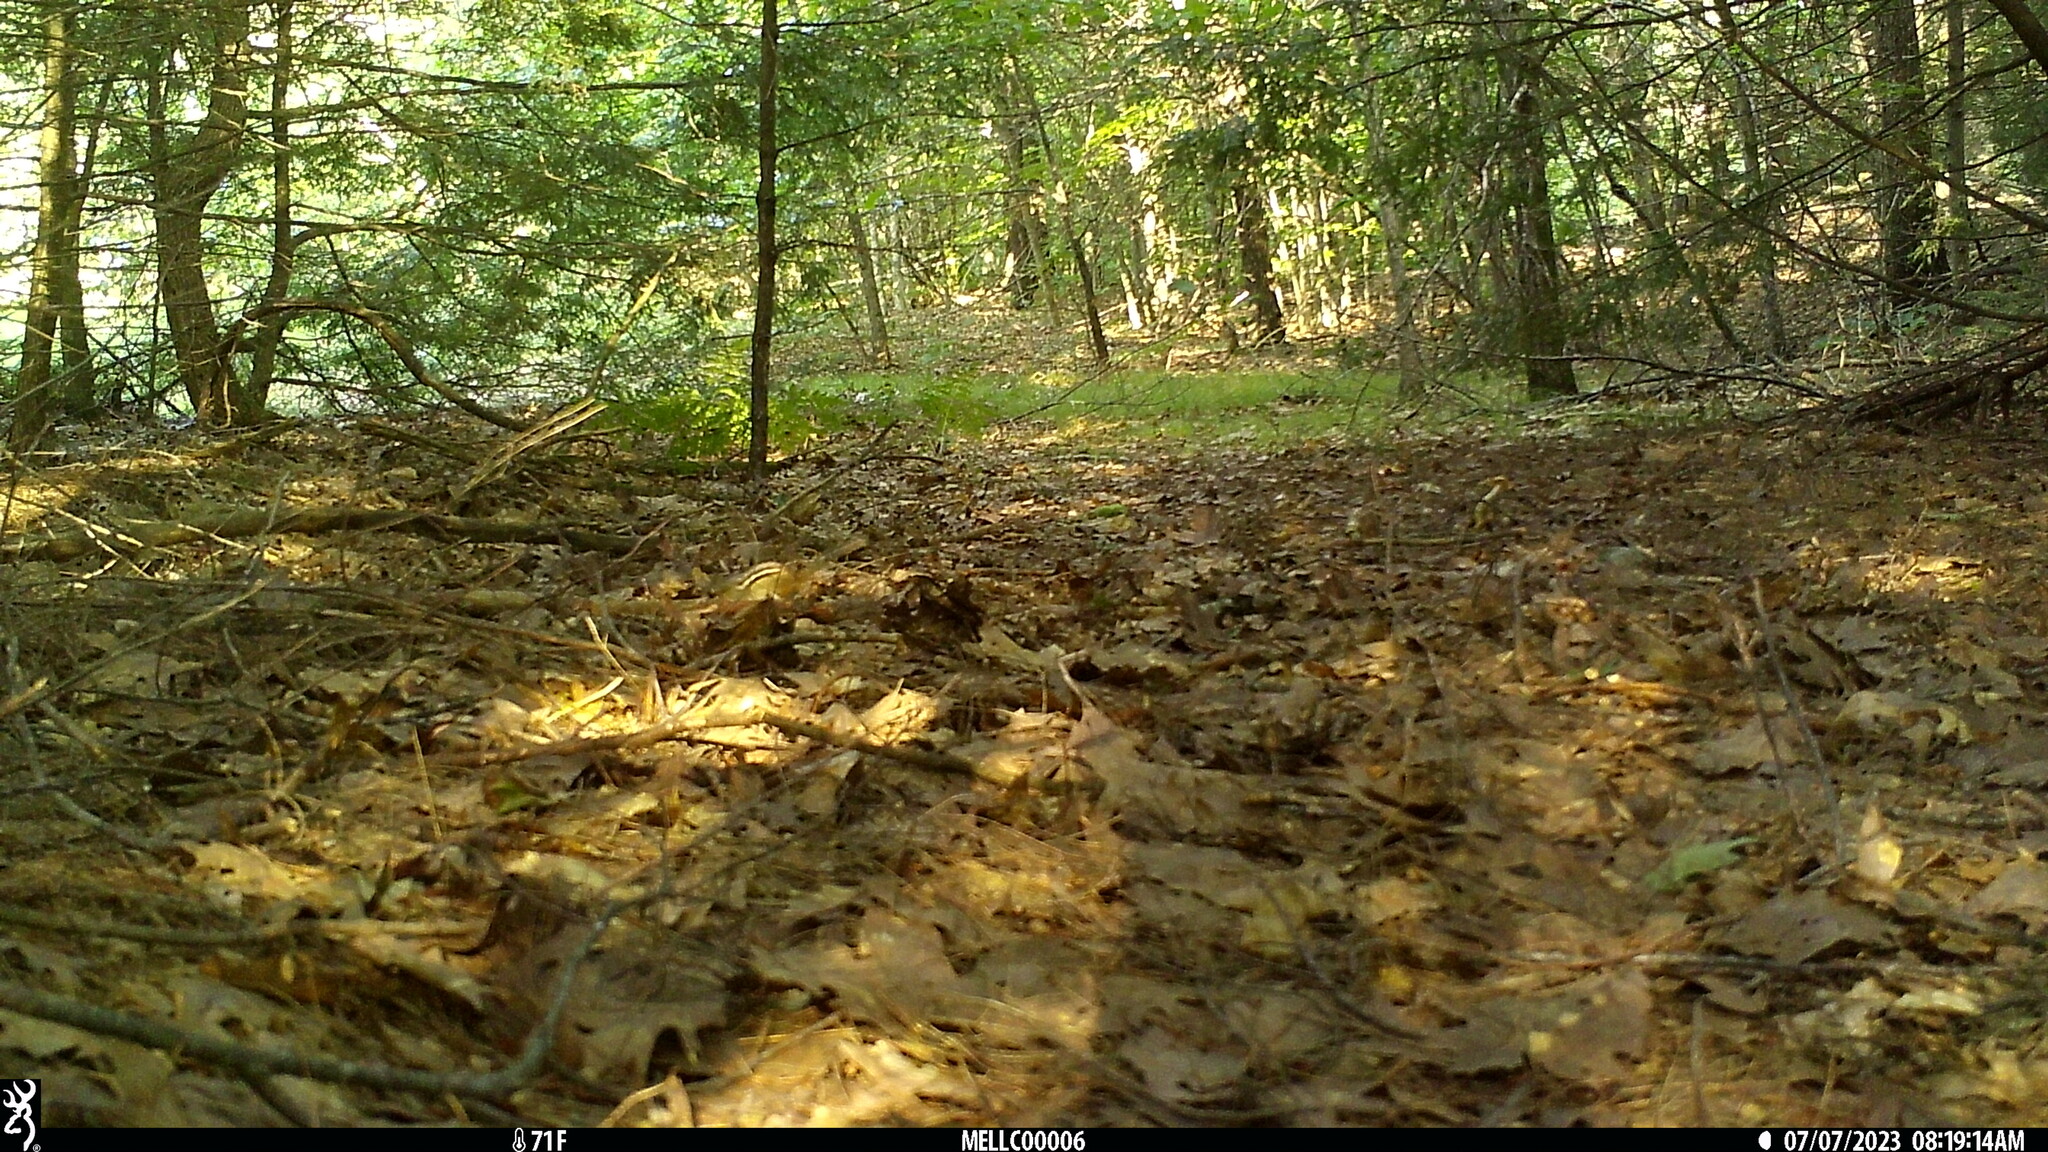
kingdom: Animalia
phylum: Chordata
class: Mammalia
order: Rodentia
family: Sciuridae
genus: Tamias
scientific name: Tamias striatus
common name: Eastern chipmunk
